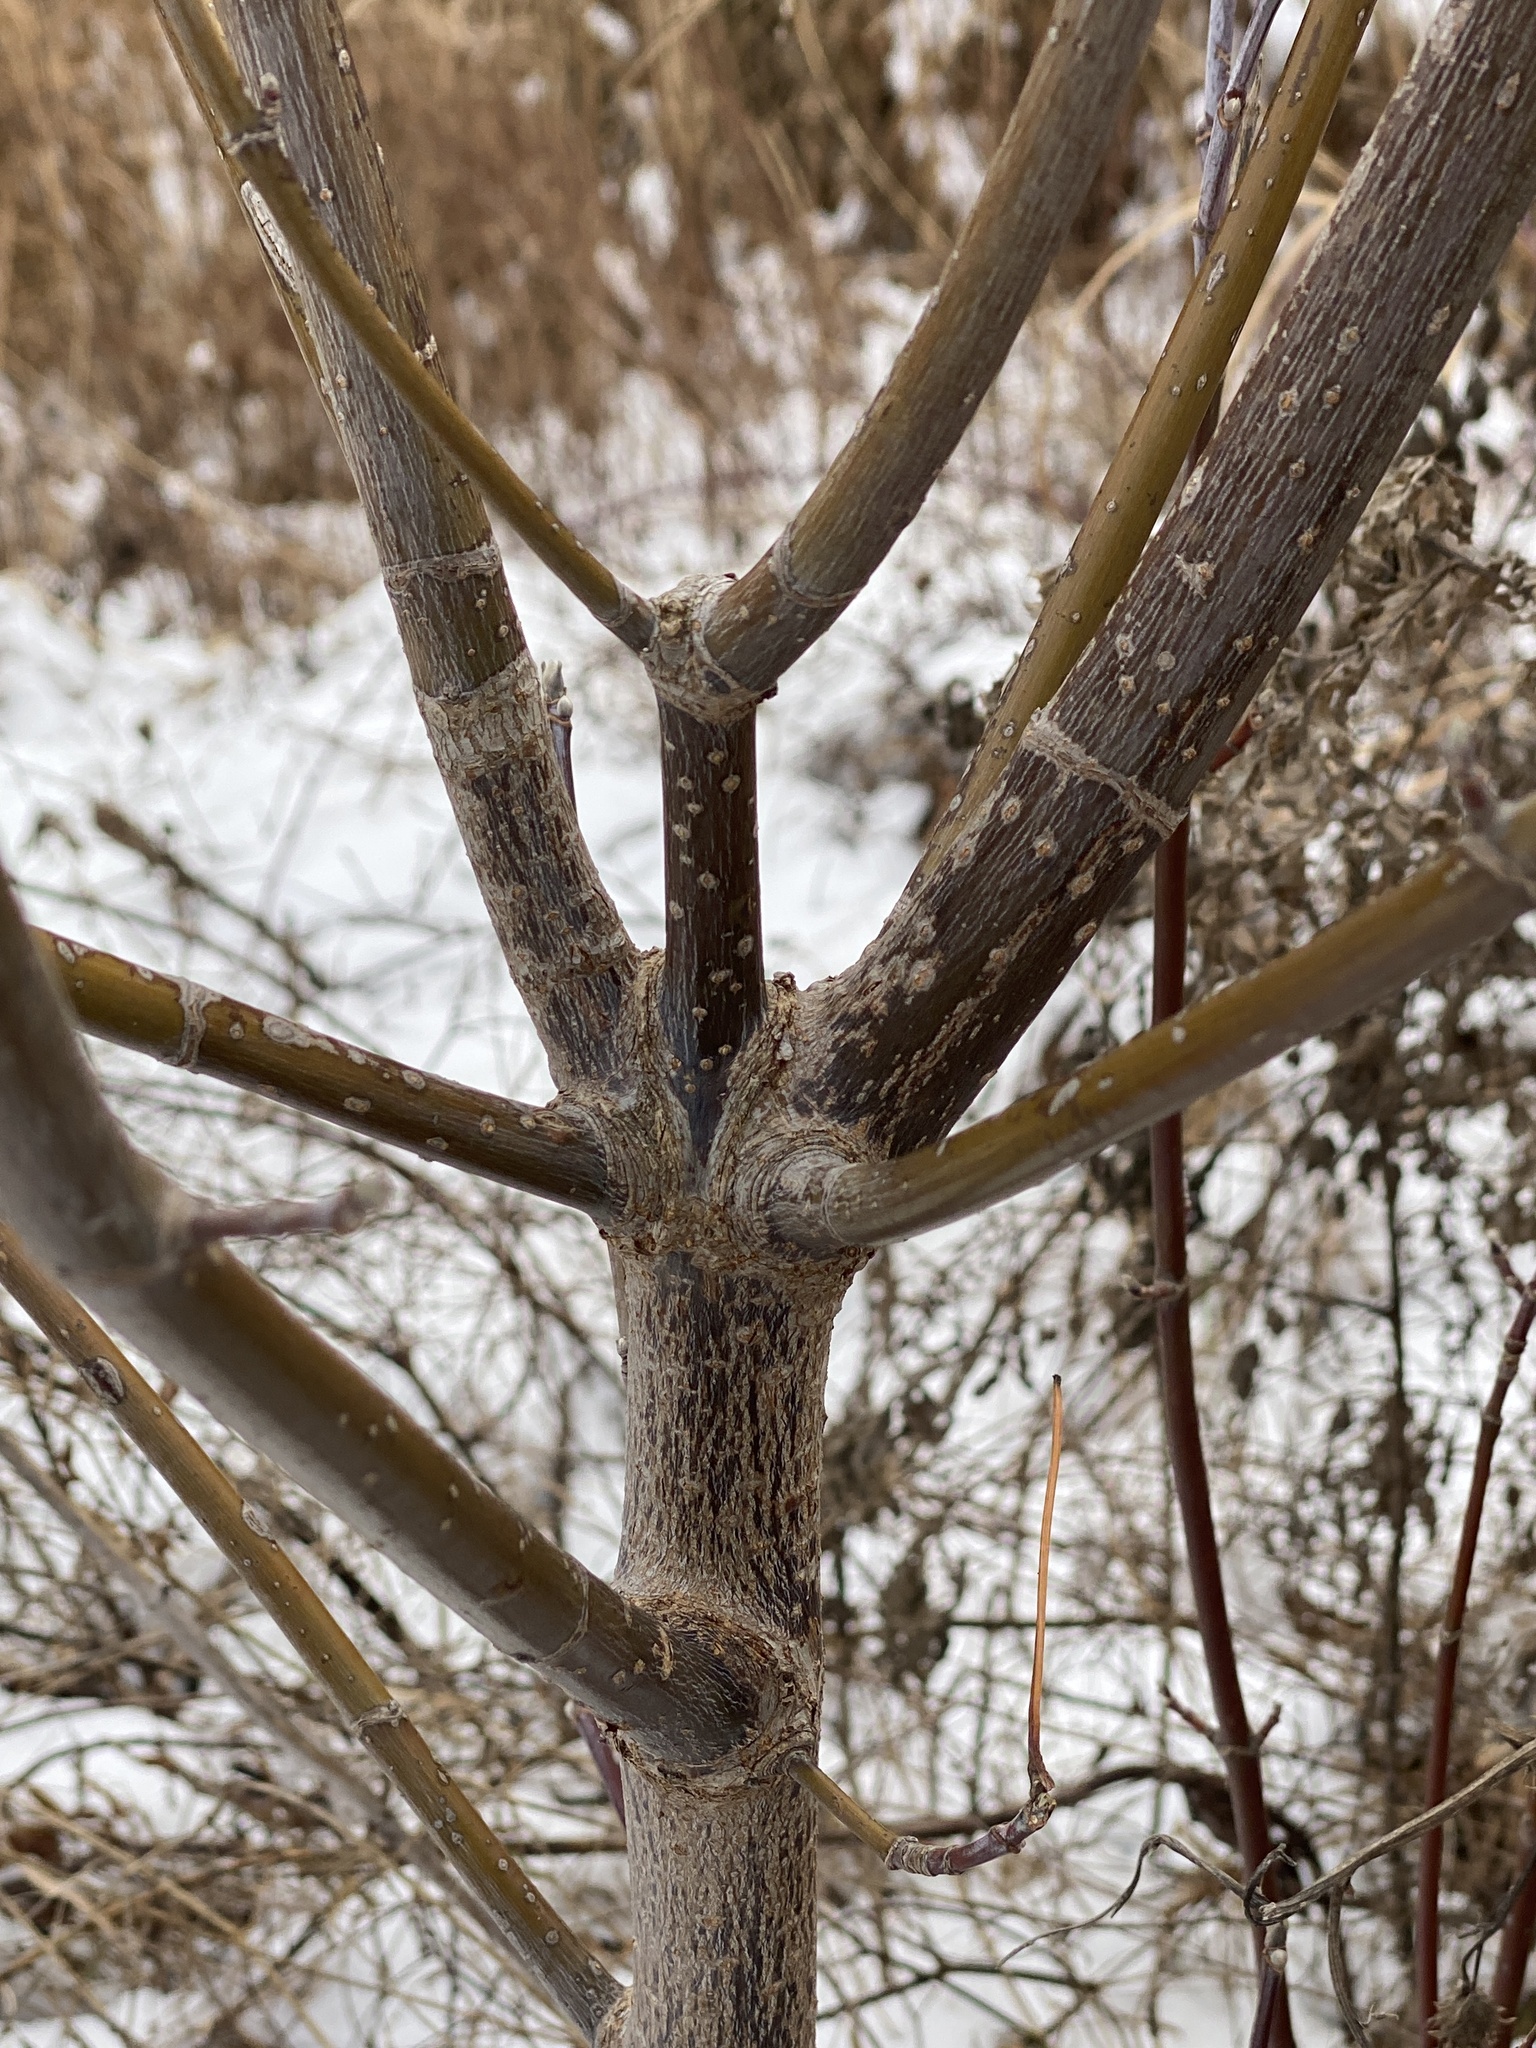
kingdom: Plantae
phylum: Tracheophyta
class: Magnoliopsida
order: Sapindales
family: Sapindaceae
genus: Acer
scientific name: Acer negundo
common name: Ashleaf maple
